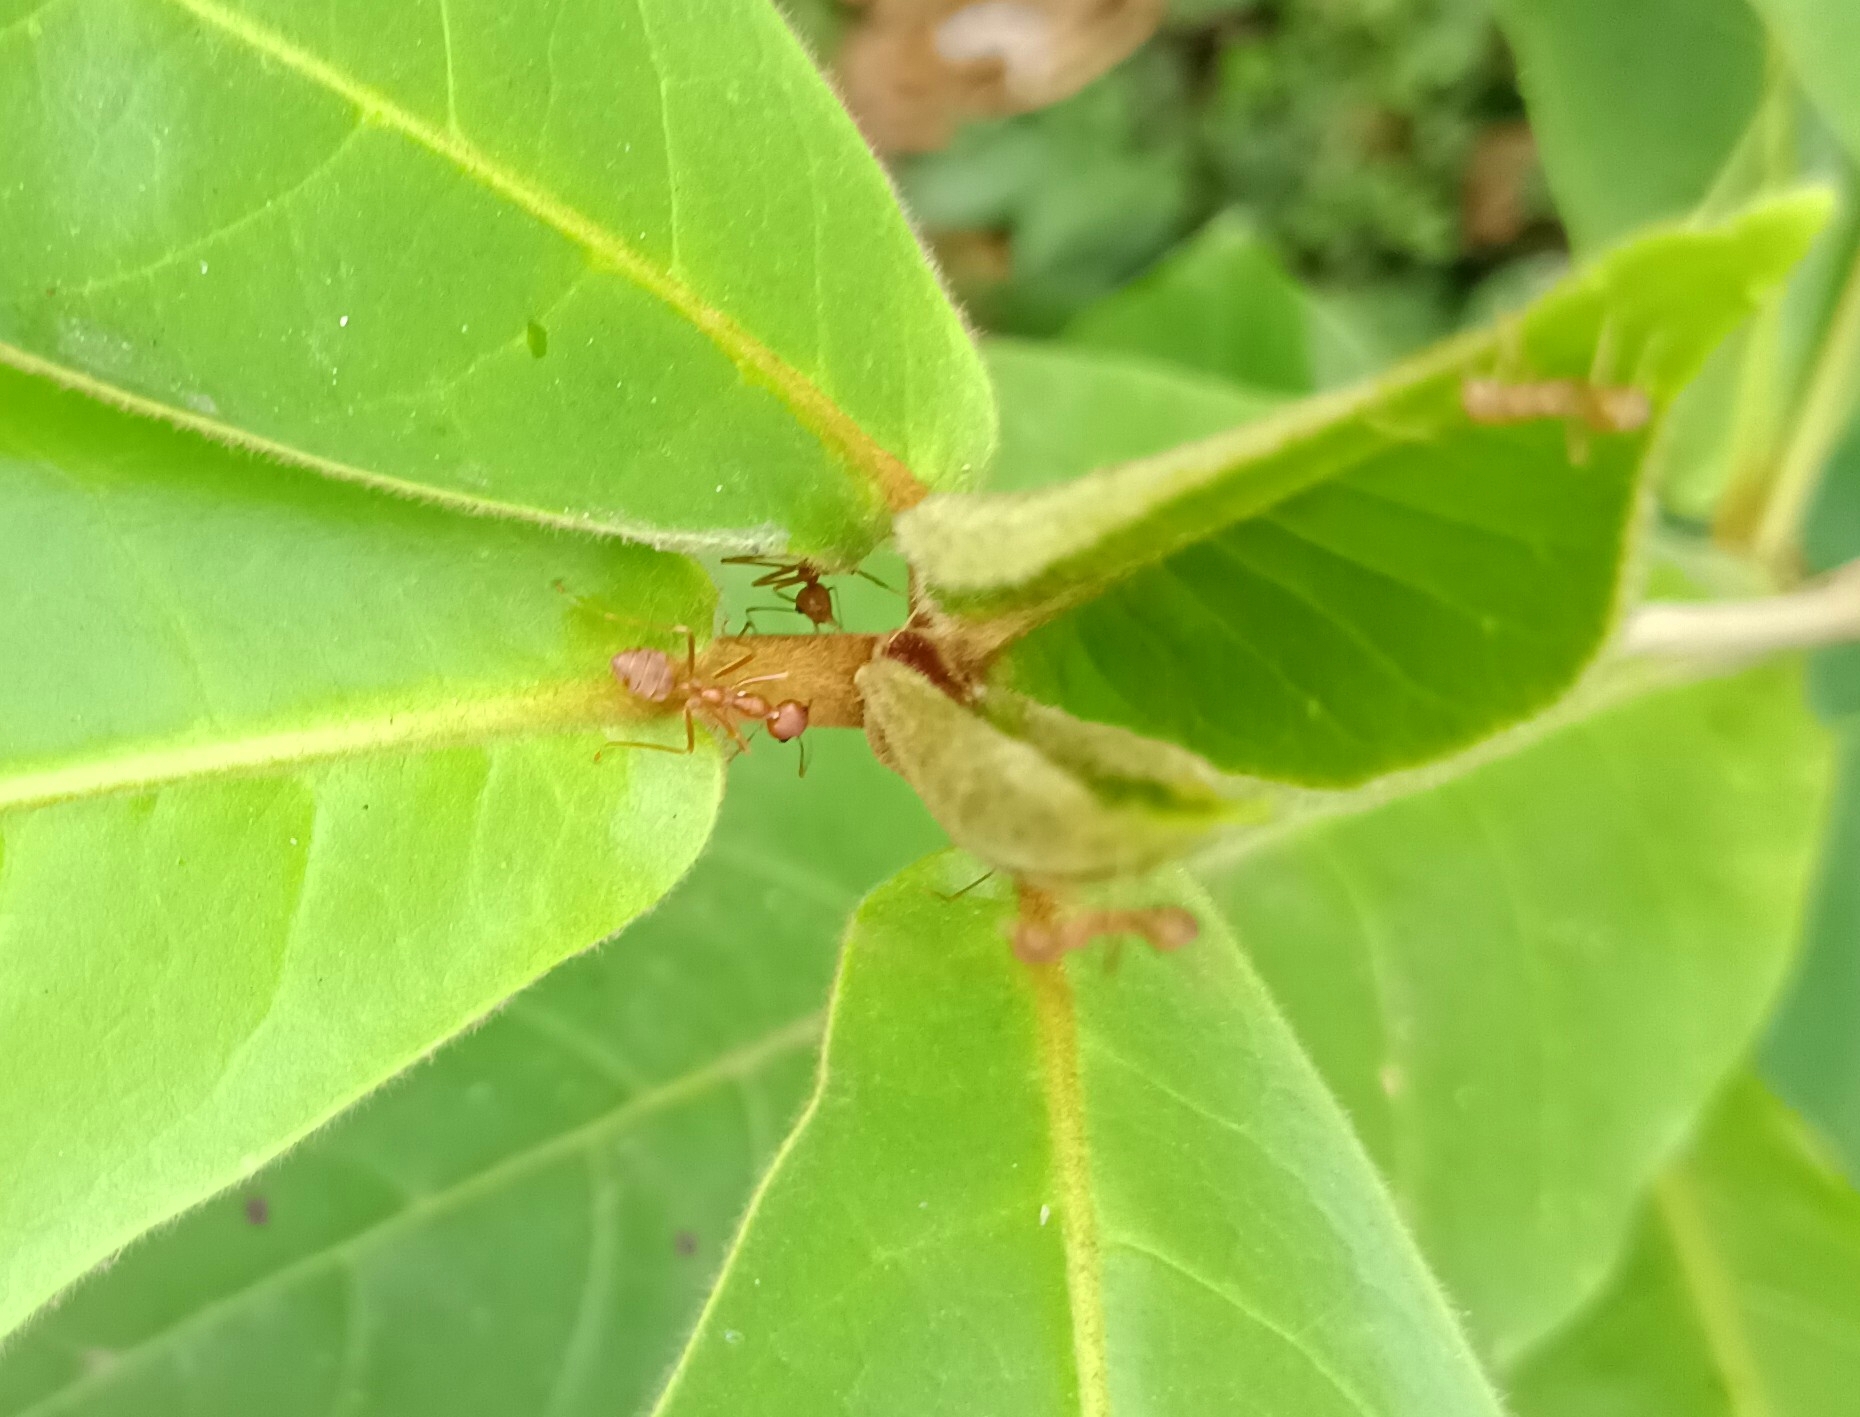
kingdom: Animalia
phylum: Arthropoda
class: Insecta
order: Hymenoptera
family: Formicidae
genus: Oecophylla
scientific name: Oecophylla smaragdina
